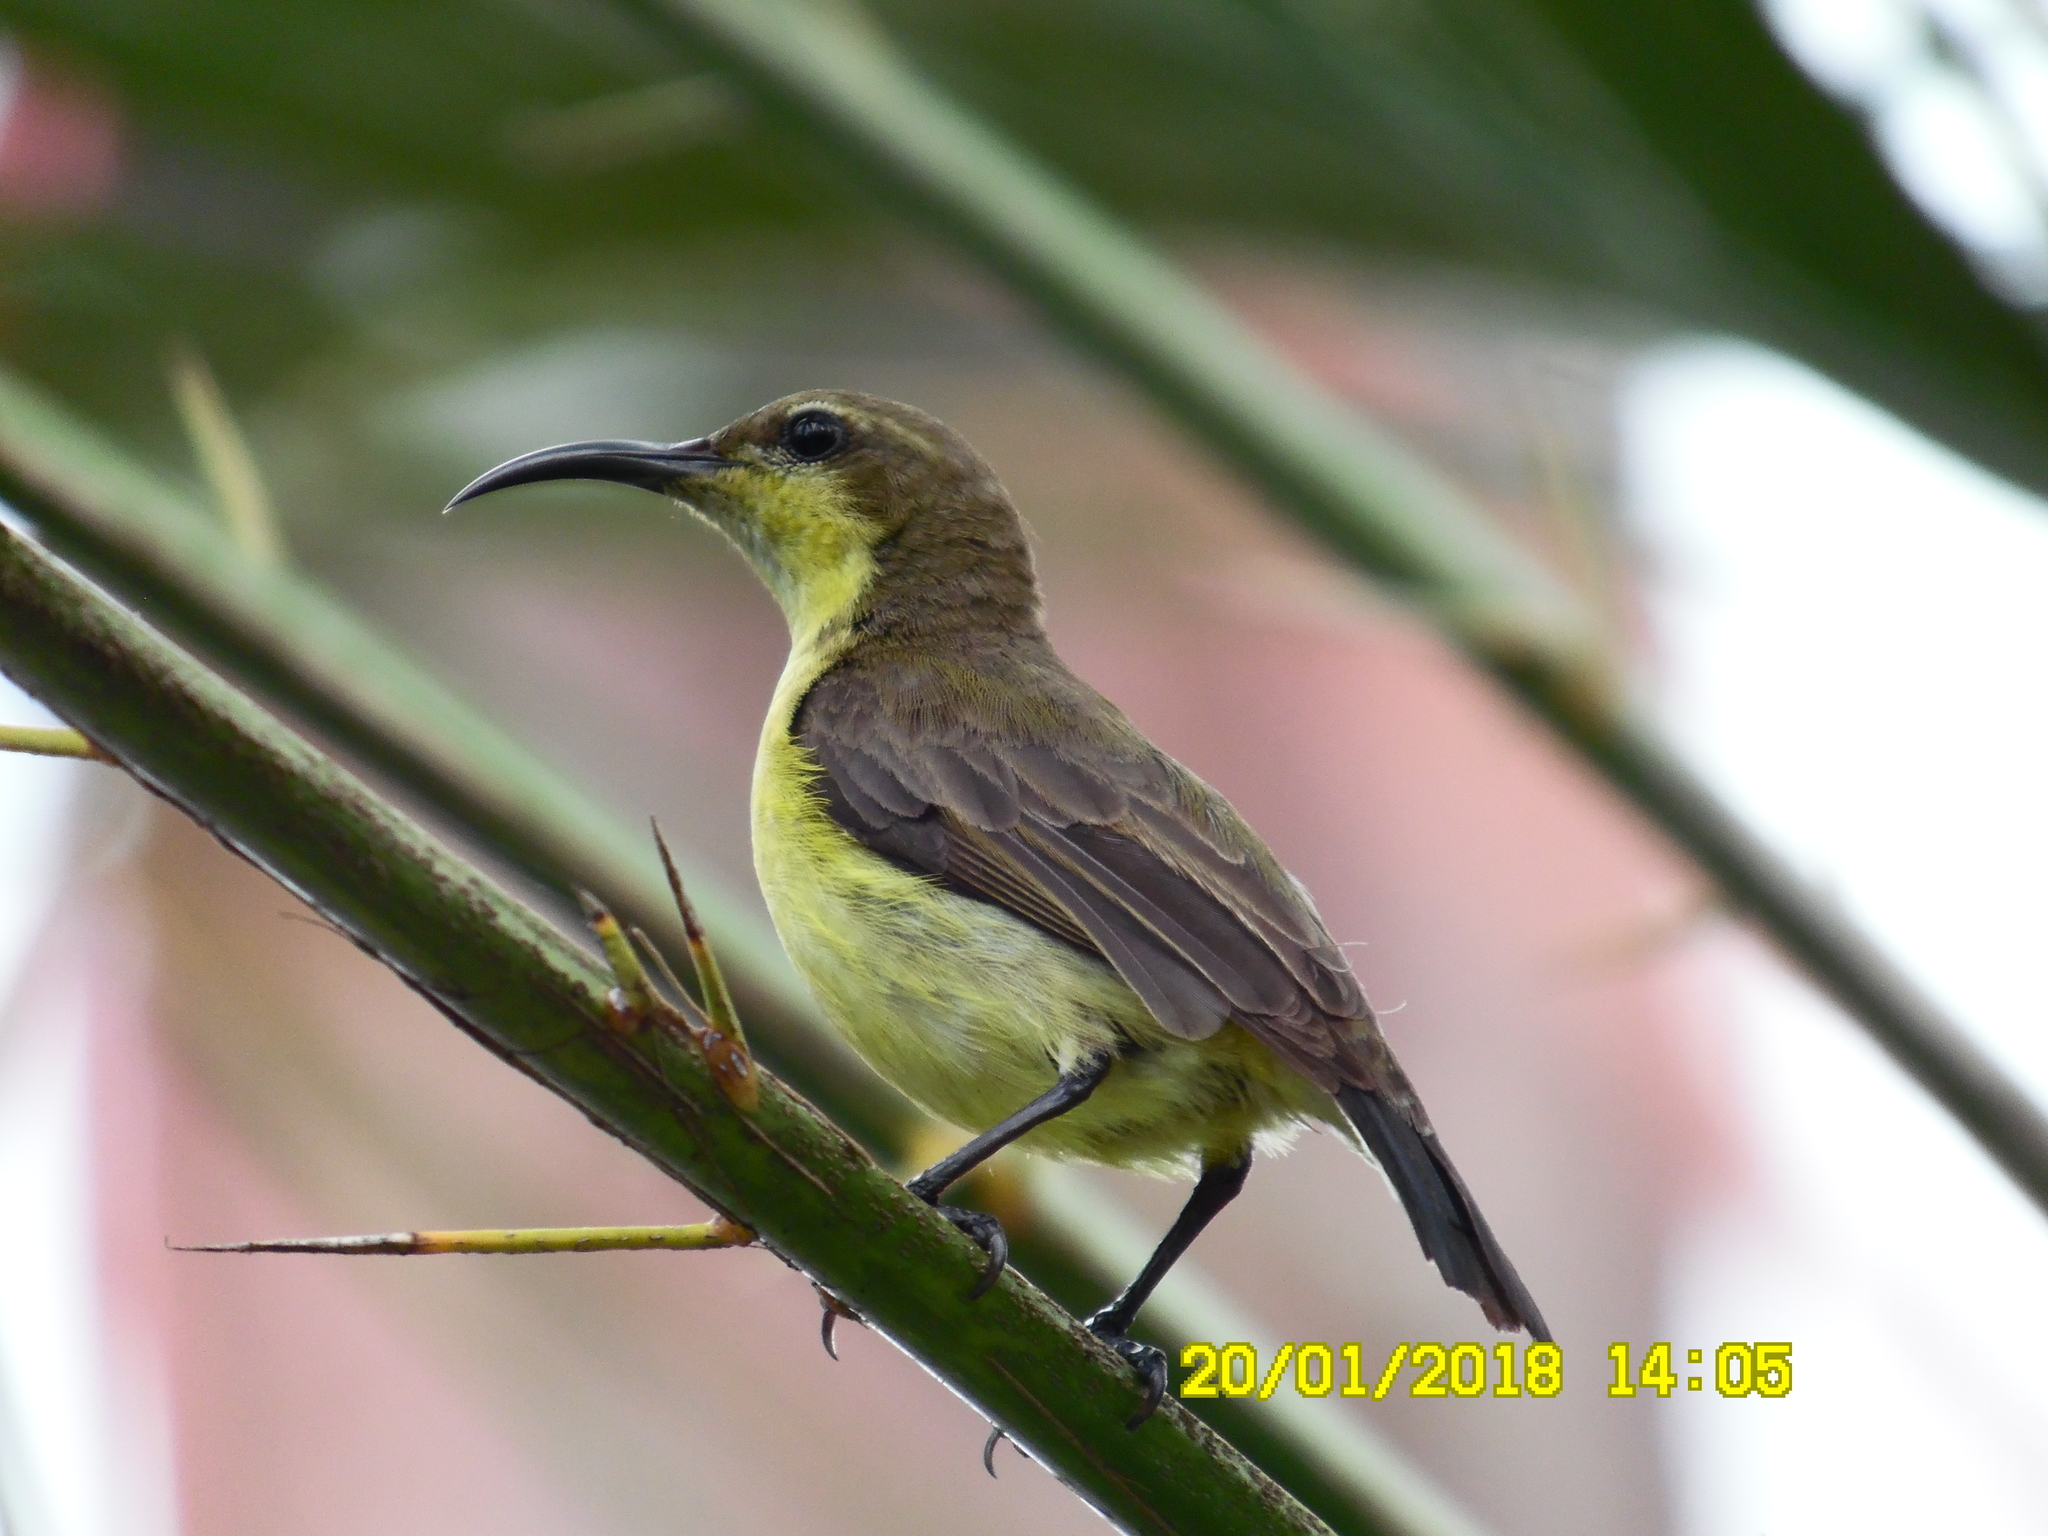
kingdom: Animalia
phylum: Chordata
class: Aves
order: Passeriformes
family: Nectariniidae
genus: Cinnyris
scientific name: Cinnyris
